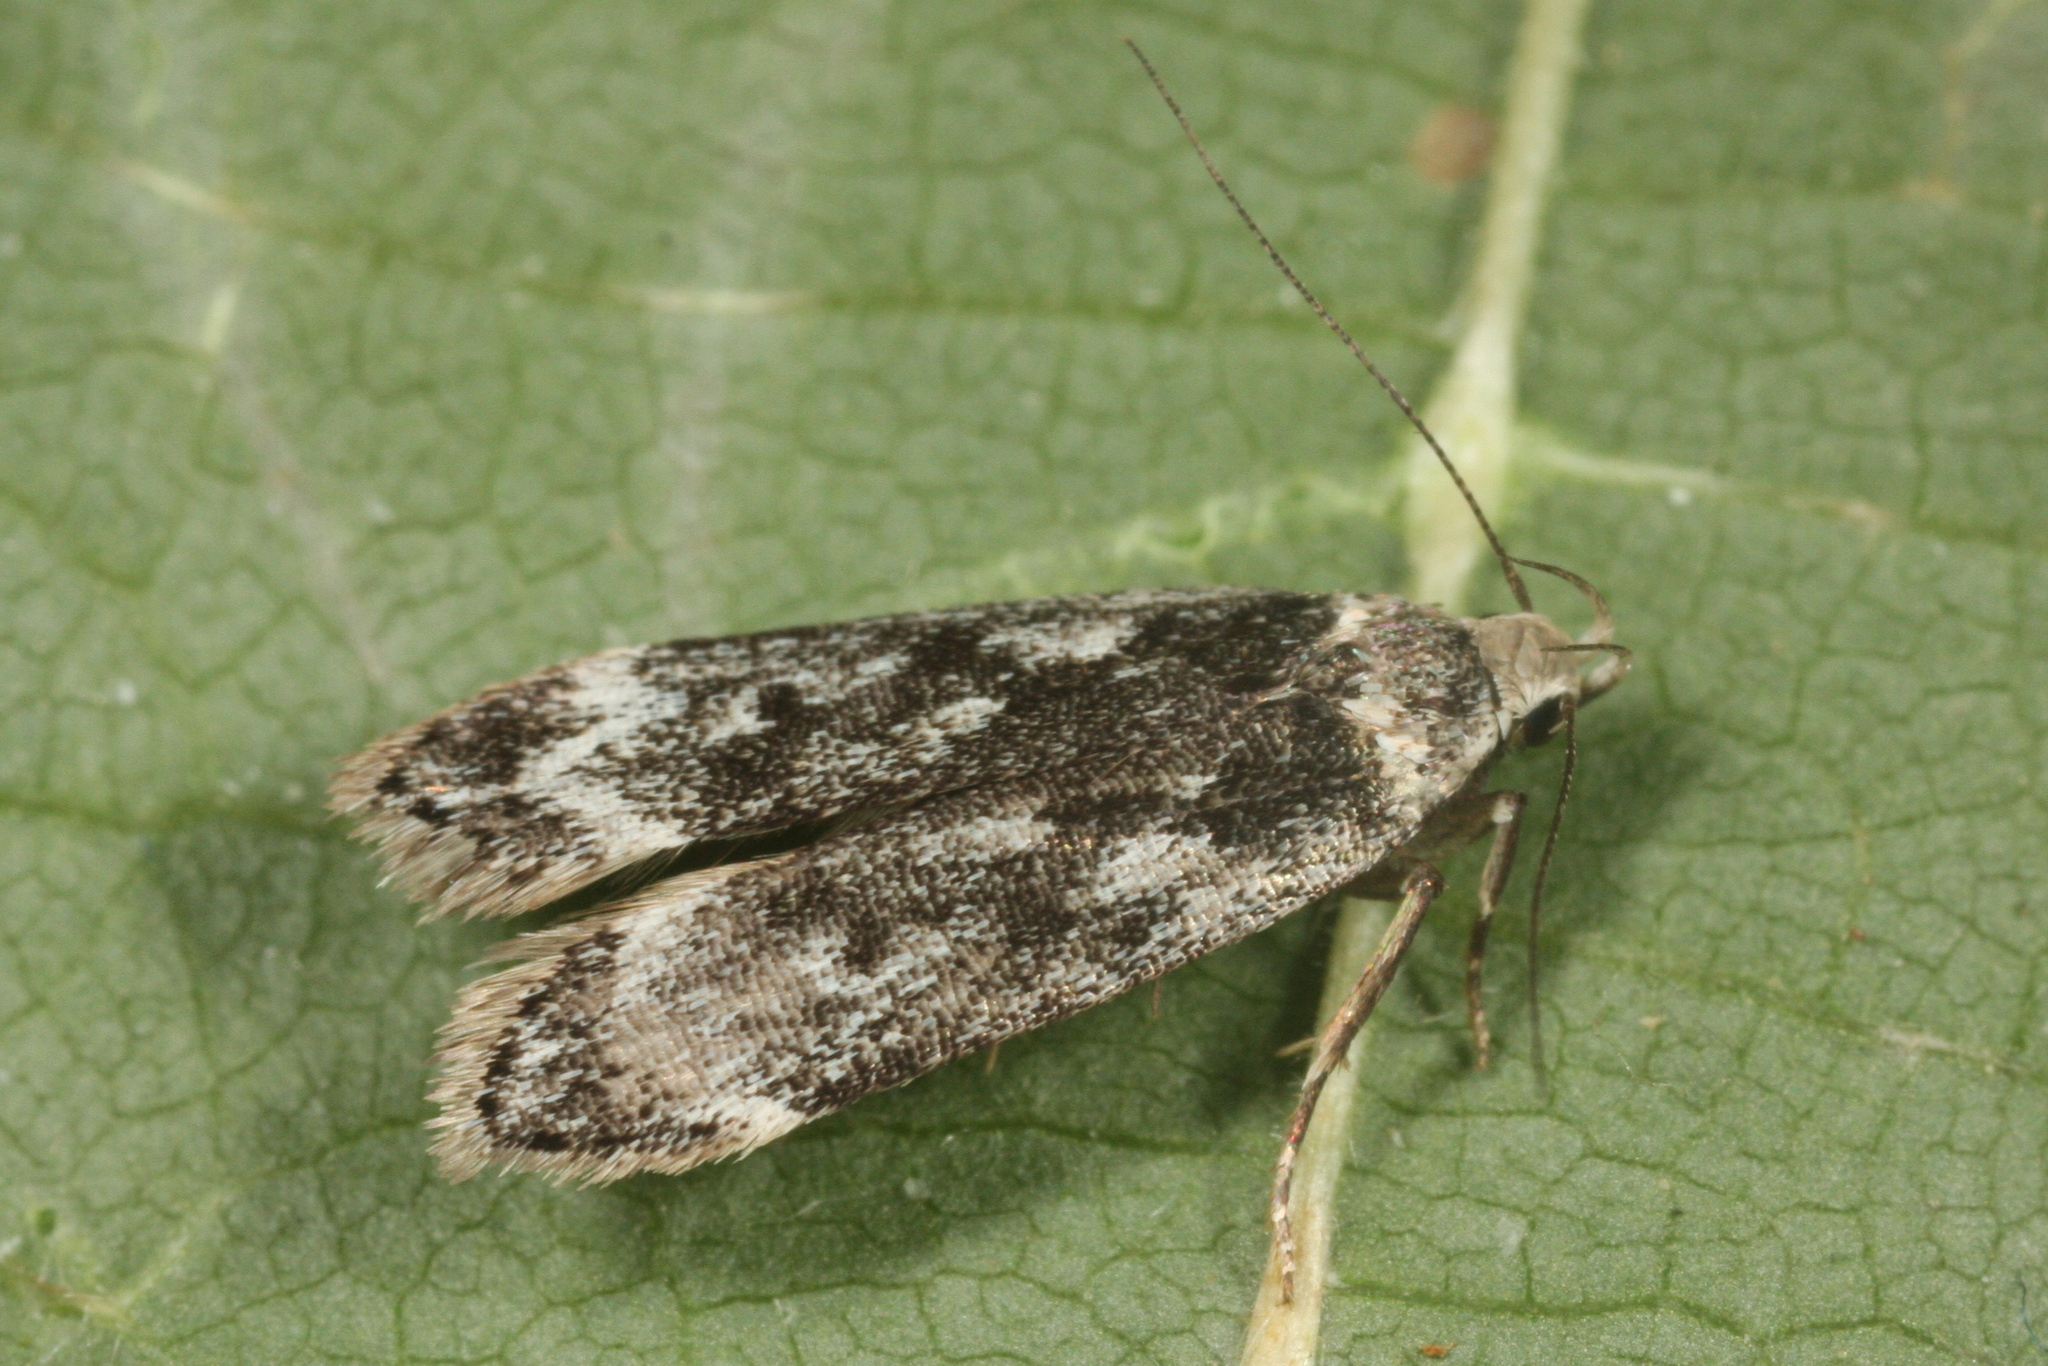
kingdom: Animalia
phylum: Arthropoda
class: Insecta
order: Lepidoptera
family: Gelechiidae
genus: Anacampsis
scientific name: Anacampsis blattariella
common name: Birch sober
